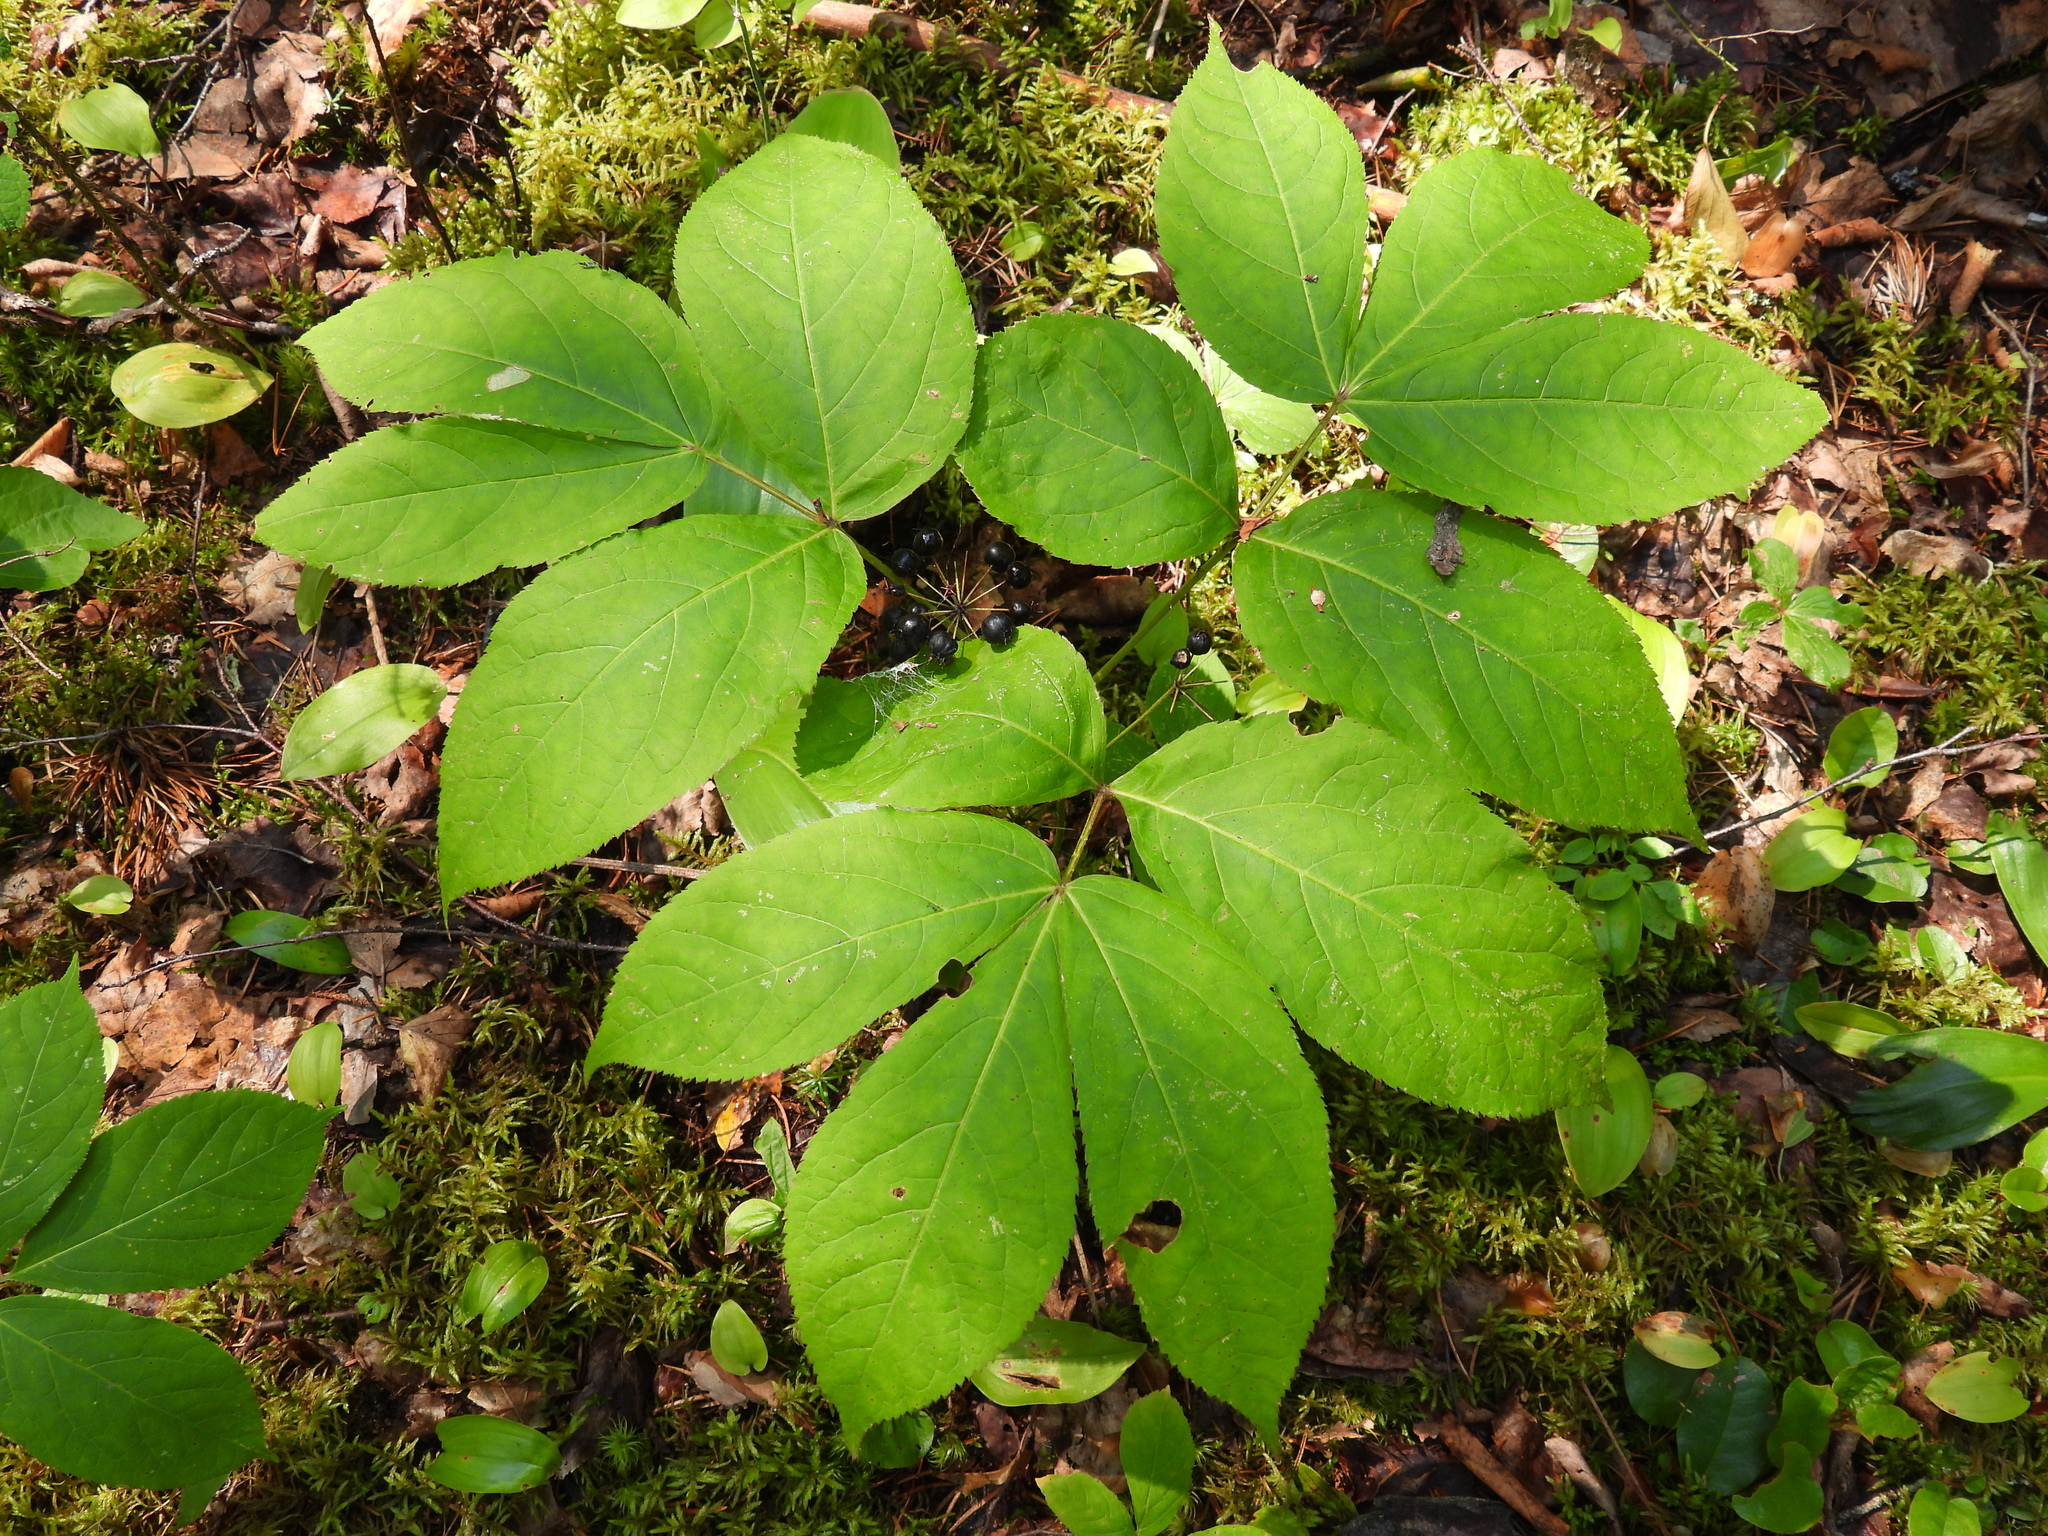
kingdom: Plantae
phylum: Tracheophyta
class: Magnoliopsida
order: Apiales
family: Araliaceae
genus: Aralia
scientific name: Aralia nudicaulis
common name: Wild sarsaparilla
